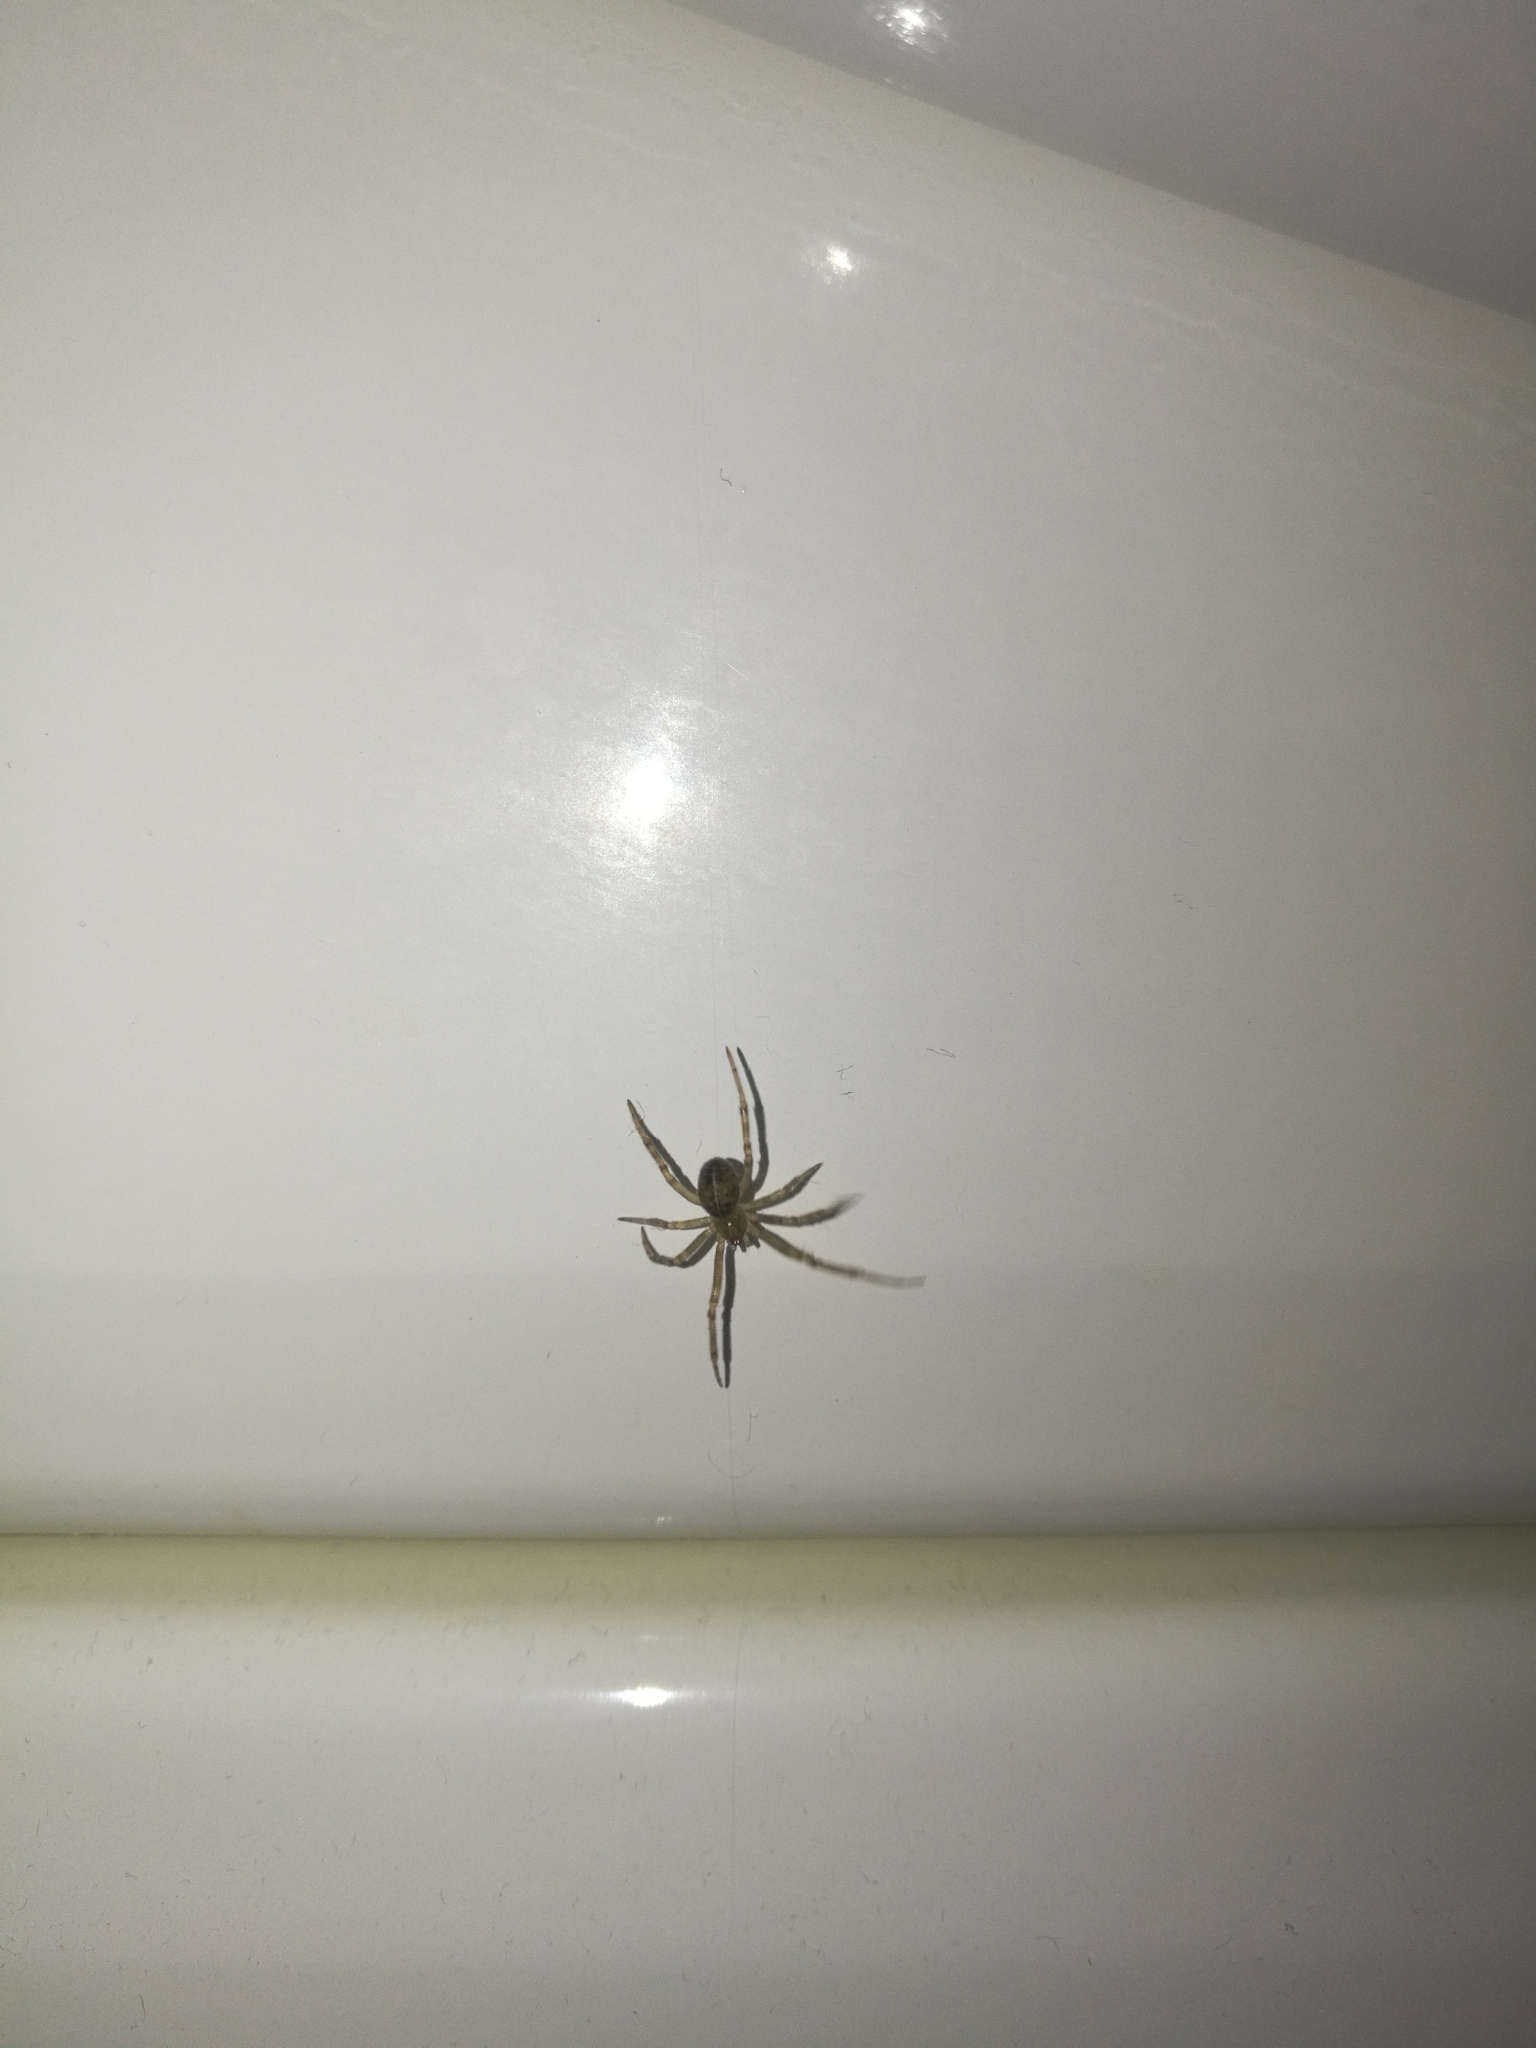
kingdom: Animalia
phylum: Arthropoda
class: Arachnida
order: Araneae
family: Theridiidae
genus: Steatoda
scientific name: Steatoda castanea
